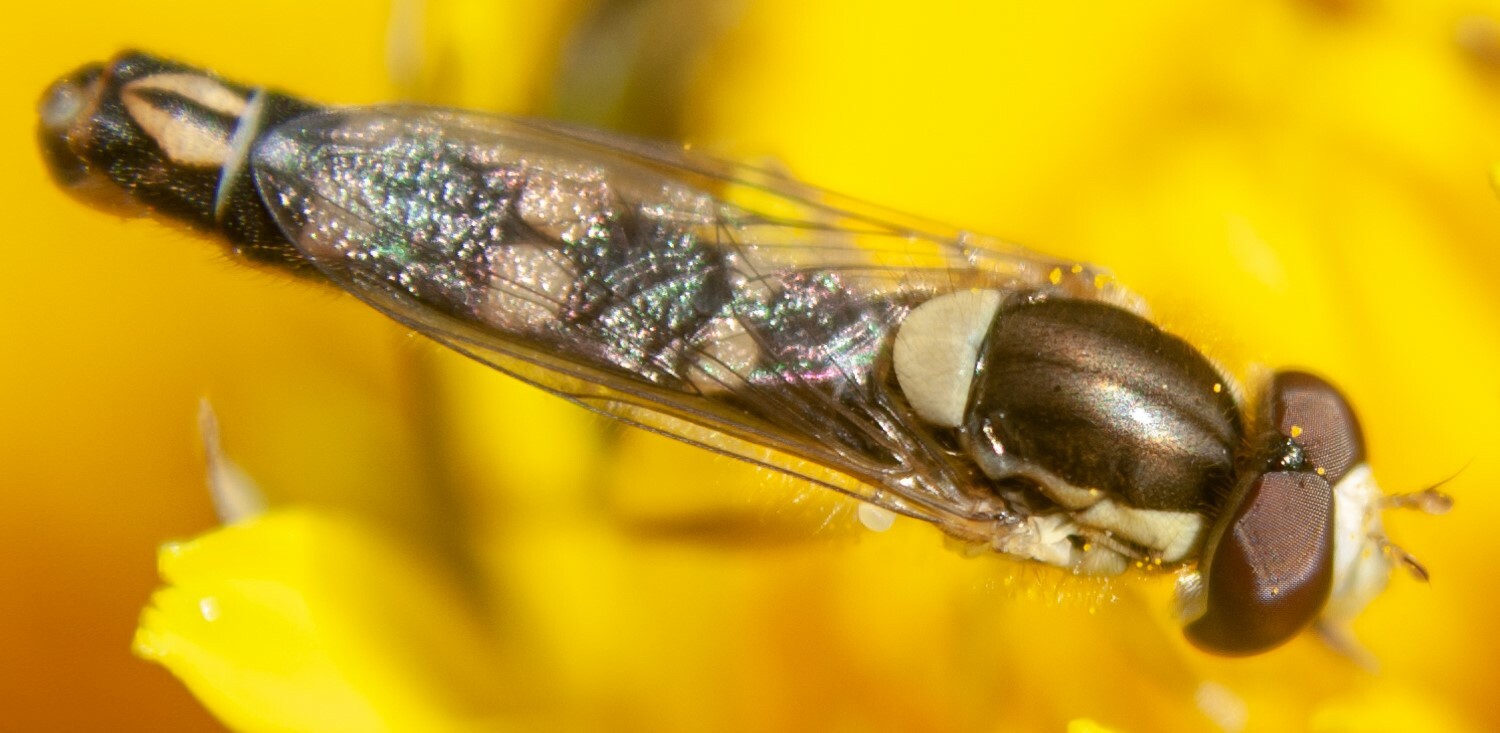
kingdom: Animalia
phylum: Arthropoda
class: Insecta
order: Diptera
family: Syrphidae
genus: Sphaerophoria
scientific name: Sphaerophoria scripta
